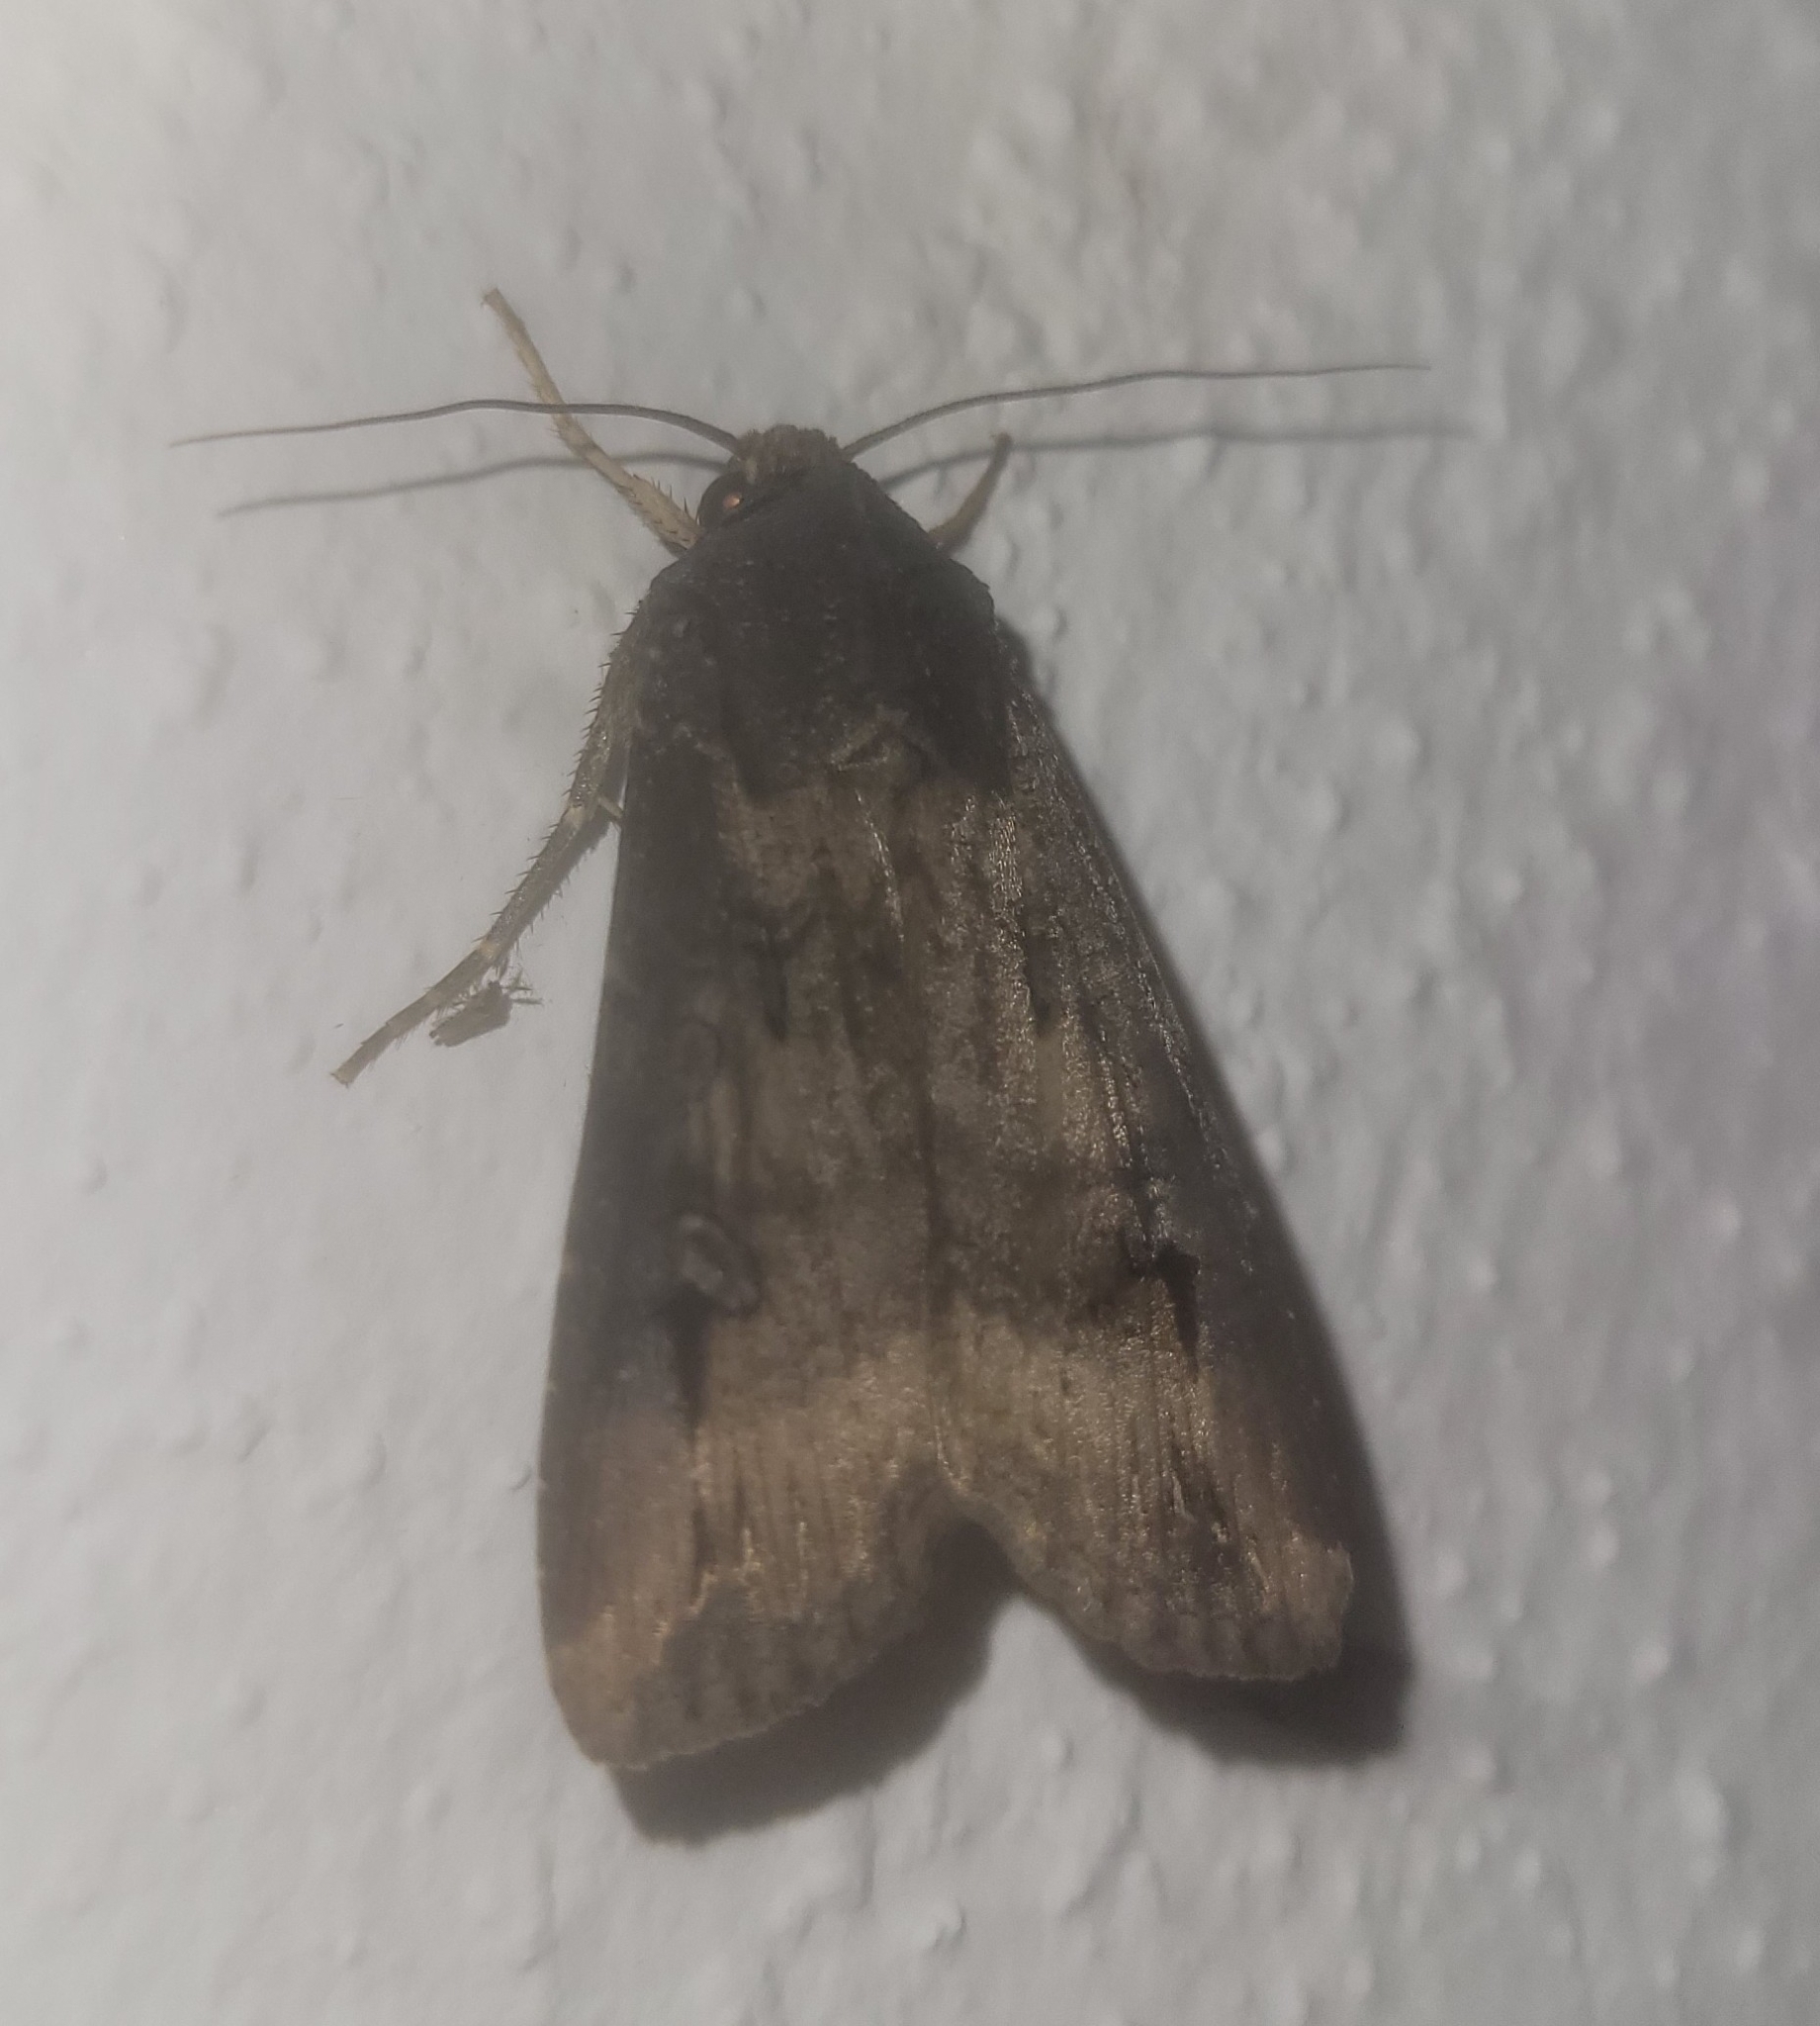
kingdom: Animalia
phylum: Arthropoda
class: Insecta
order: Lepidoptera
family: Noctuidae
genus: Agrotis
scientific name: Agrotis ipsilon
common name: Dark sword-grass
